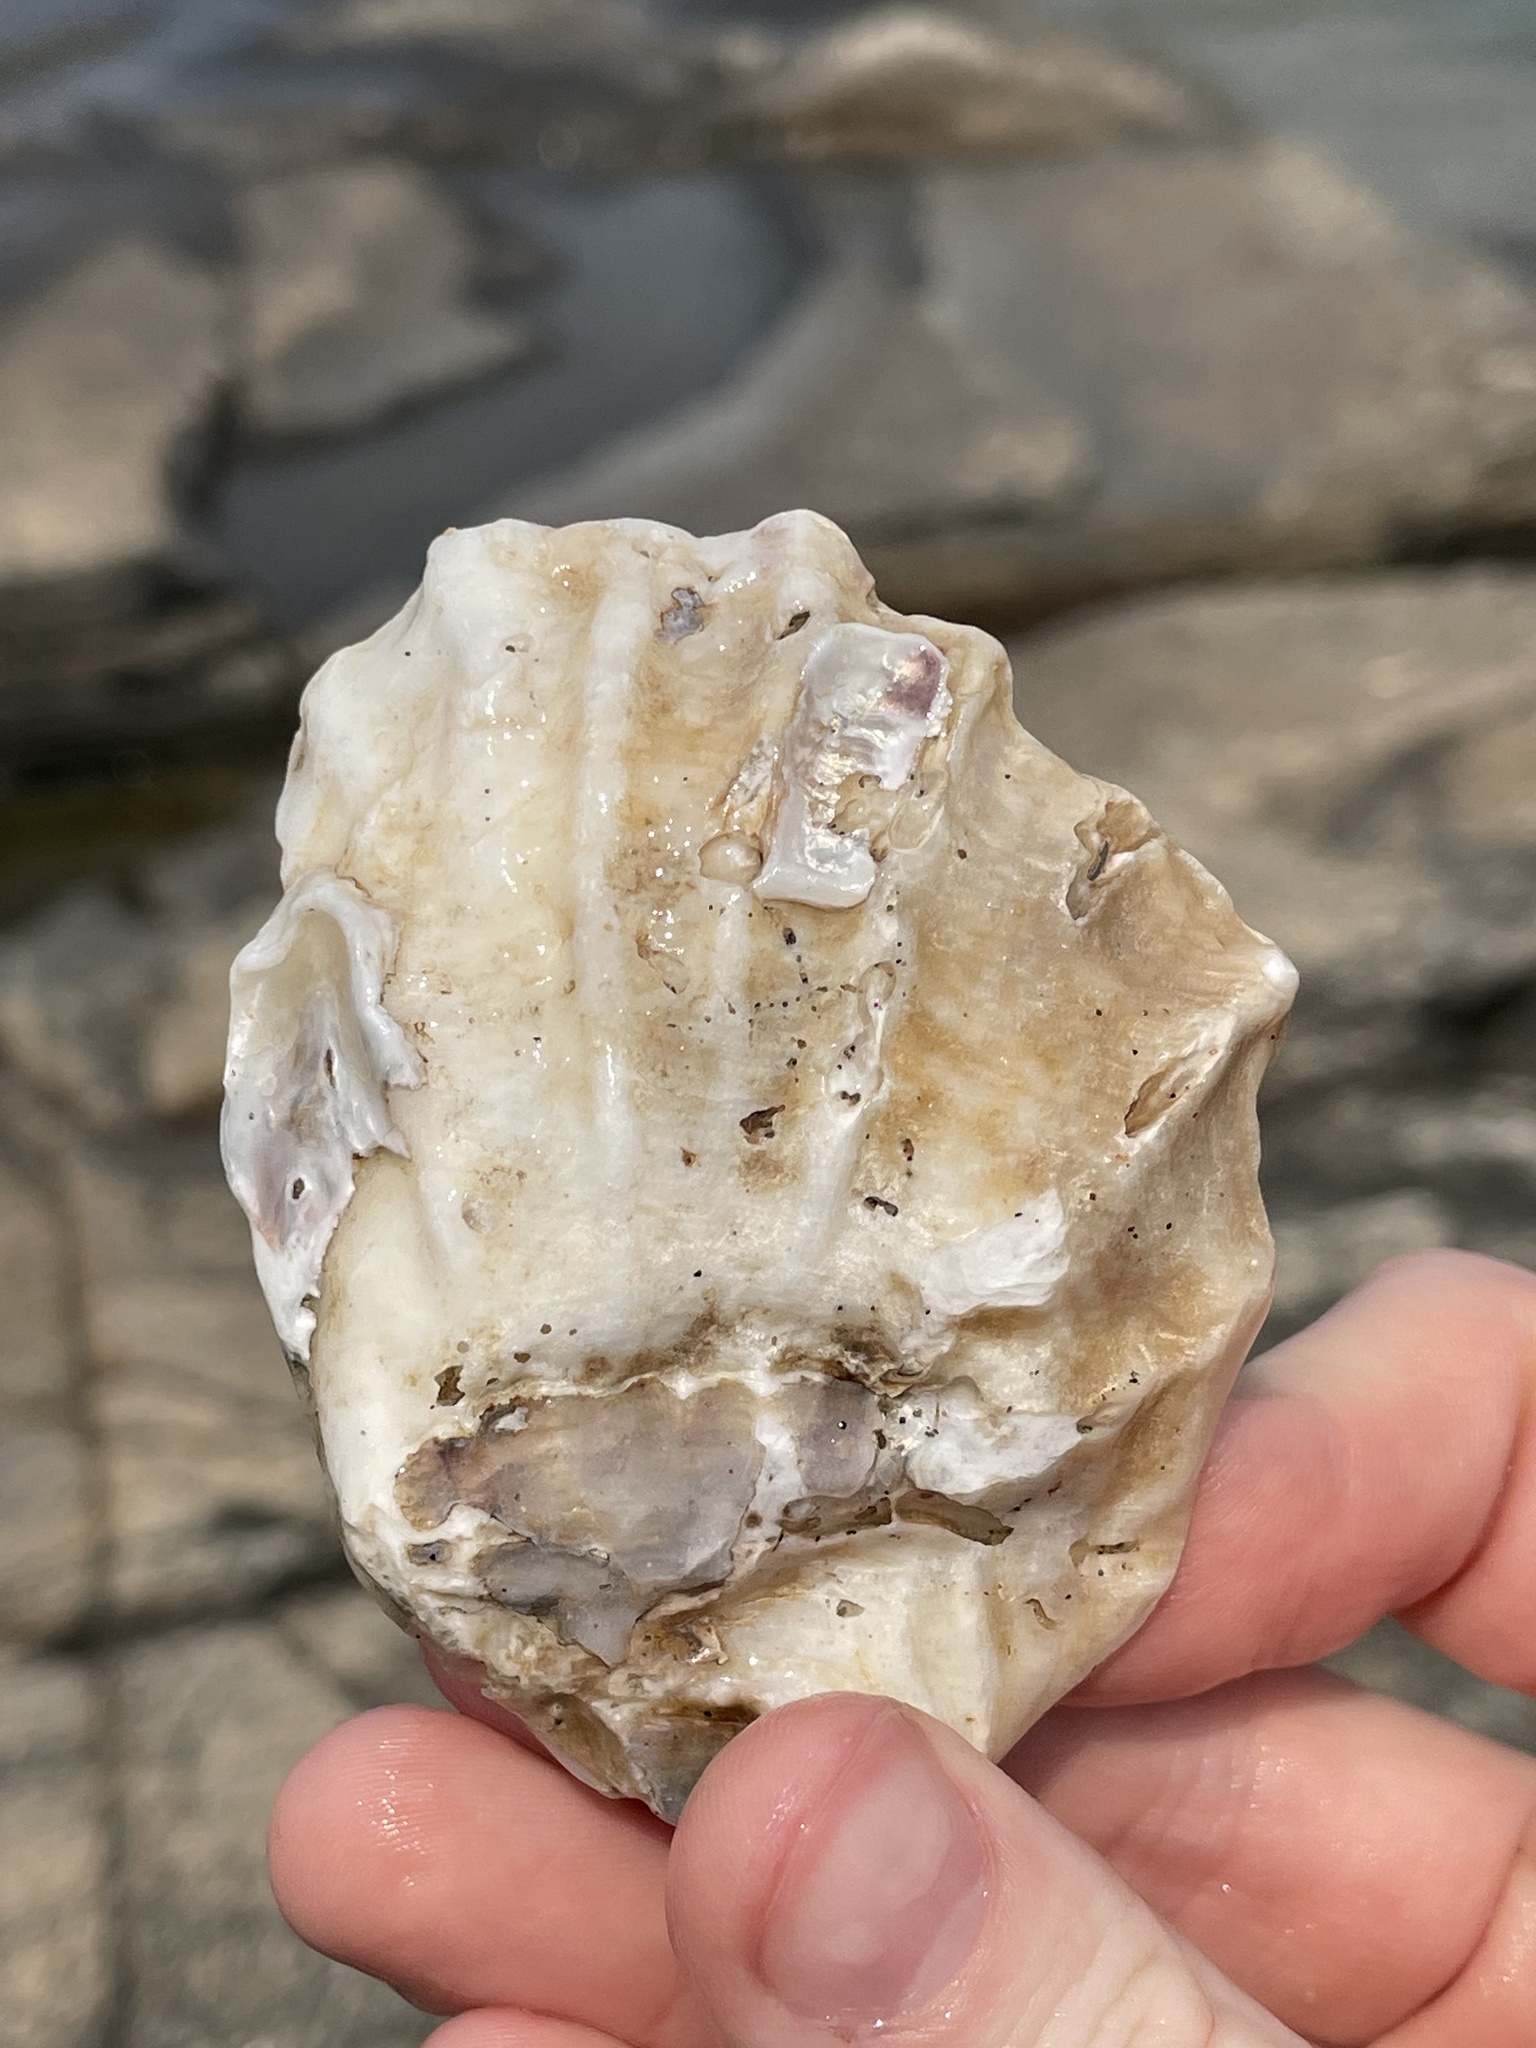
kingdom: Animalia
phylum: Mollusca
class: Bivalvia
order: Ostreida
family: Ostreidae
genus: Crassostrea
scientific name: Crassostrea virginica
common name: American oyster
